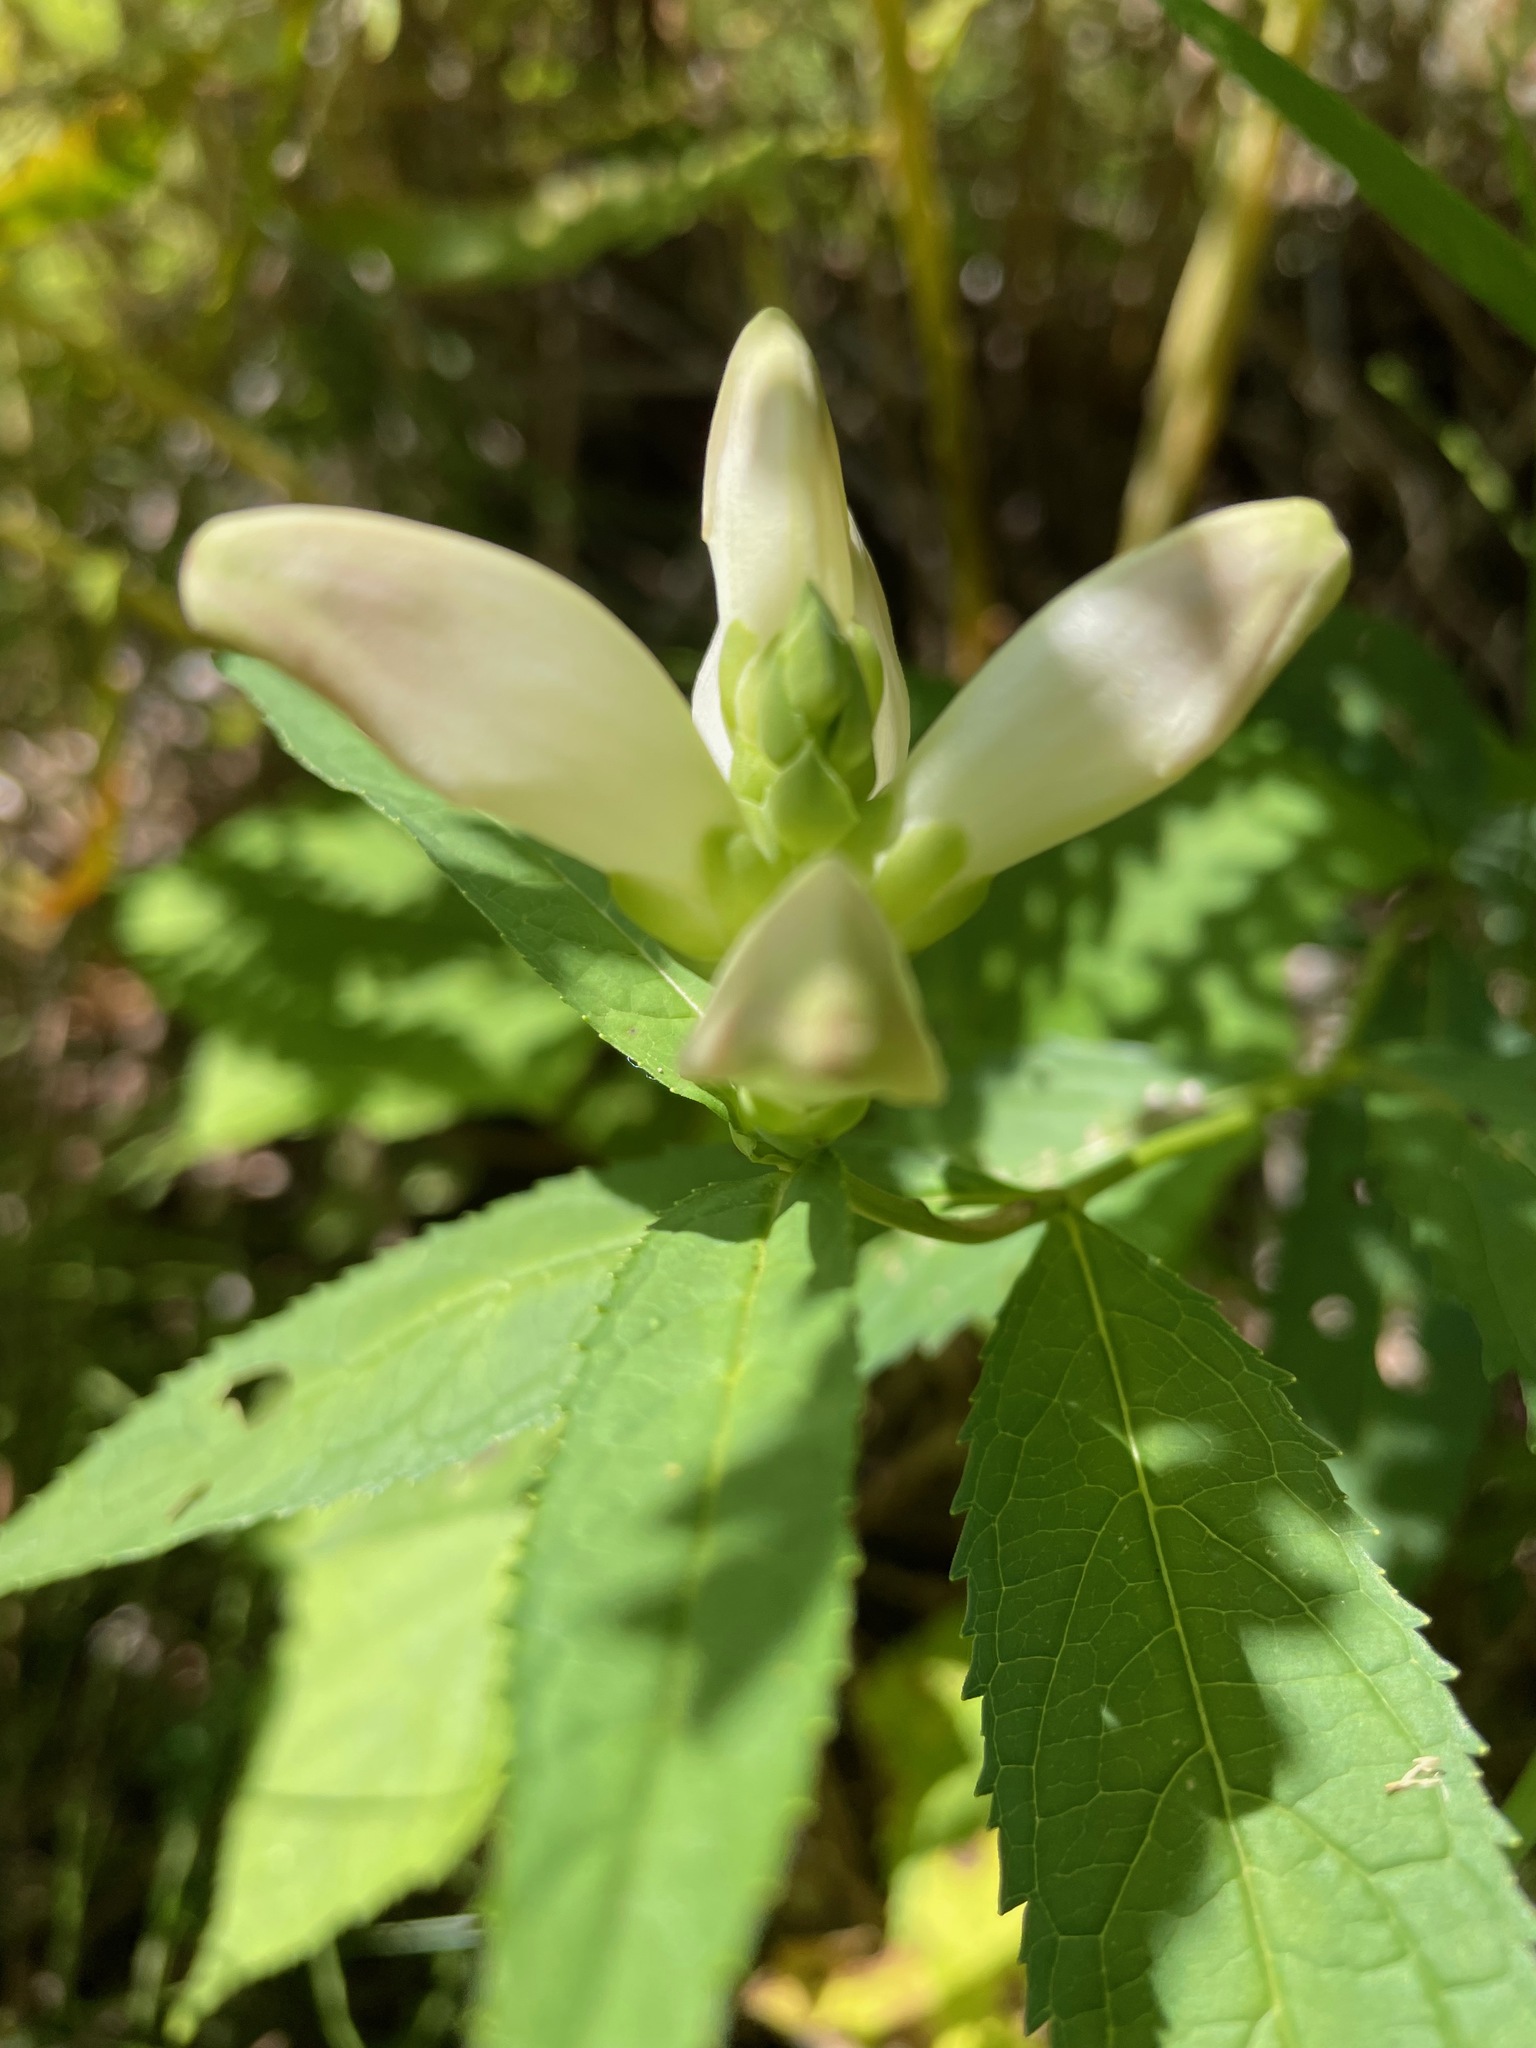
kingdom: Plantae
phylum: Tracheophyta
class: Magnoliopsida
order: Lamiales
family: Plantaginaceae
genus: Chelone
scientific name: Chelone glabra
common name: Snakehead
